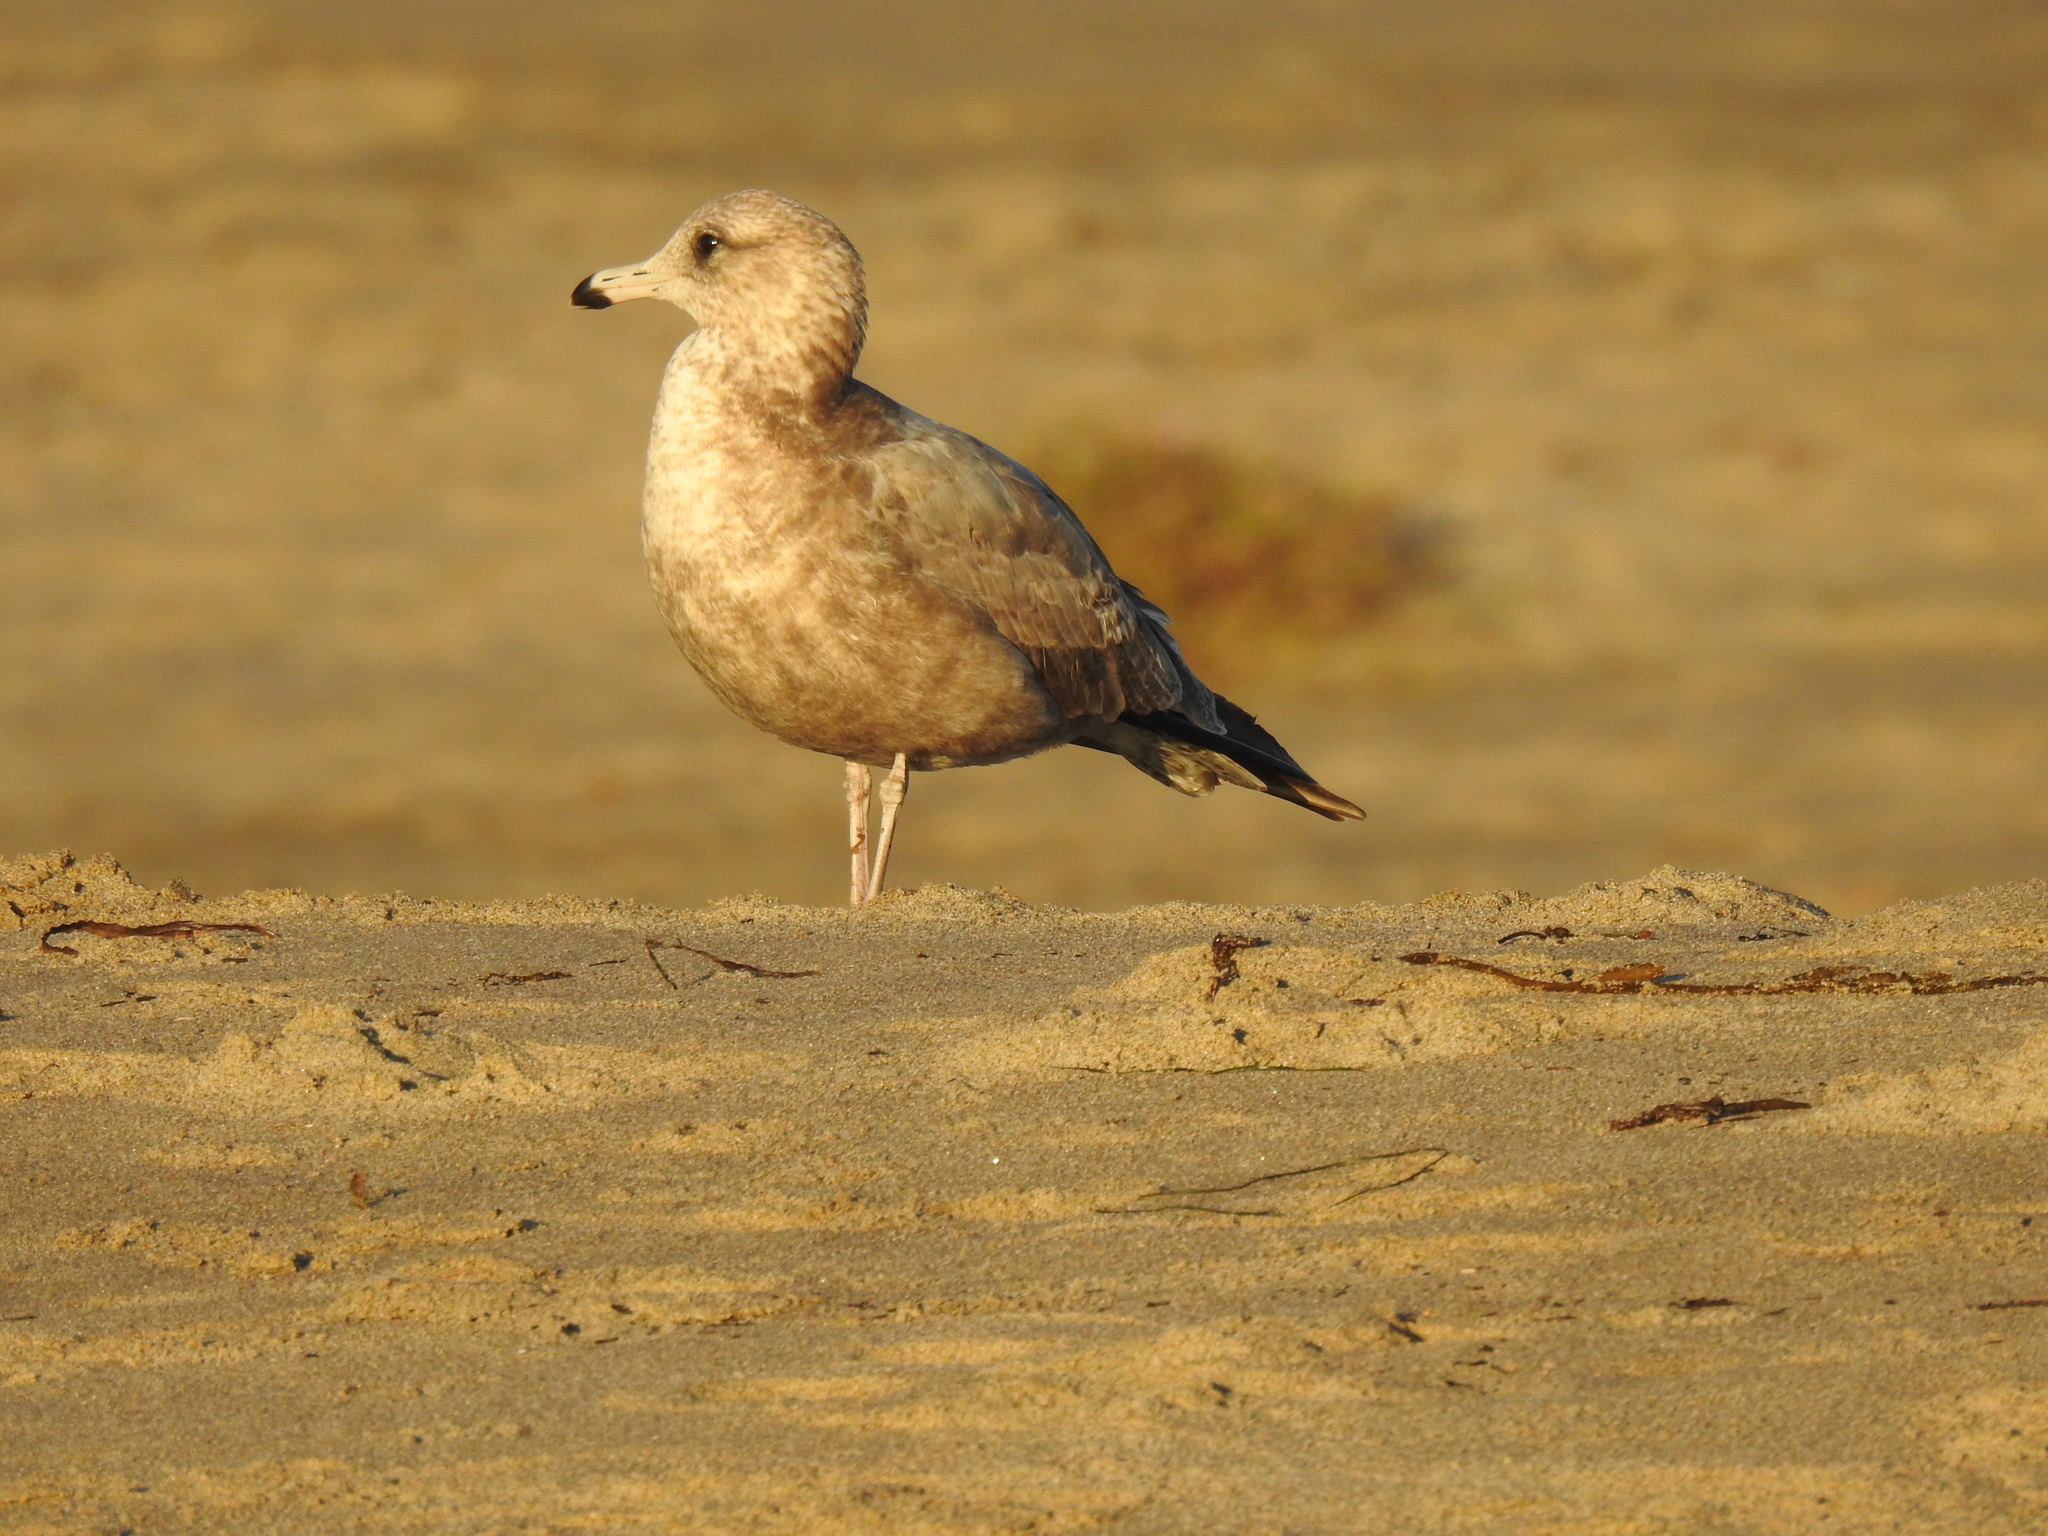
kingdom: Animalia
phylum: Chordata
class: Aves
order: Charadriiformes
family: Laridae
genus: Larus
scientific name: Larus californicus
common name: California gull
